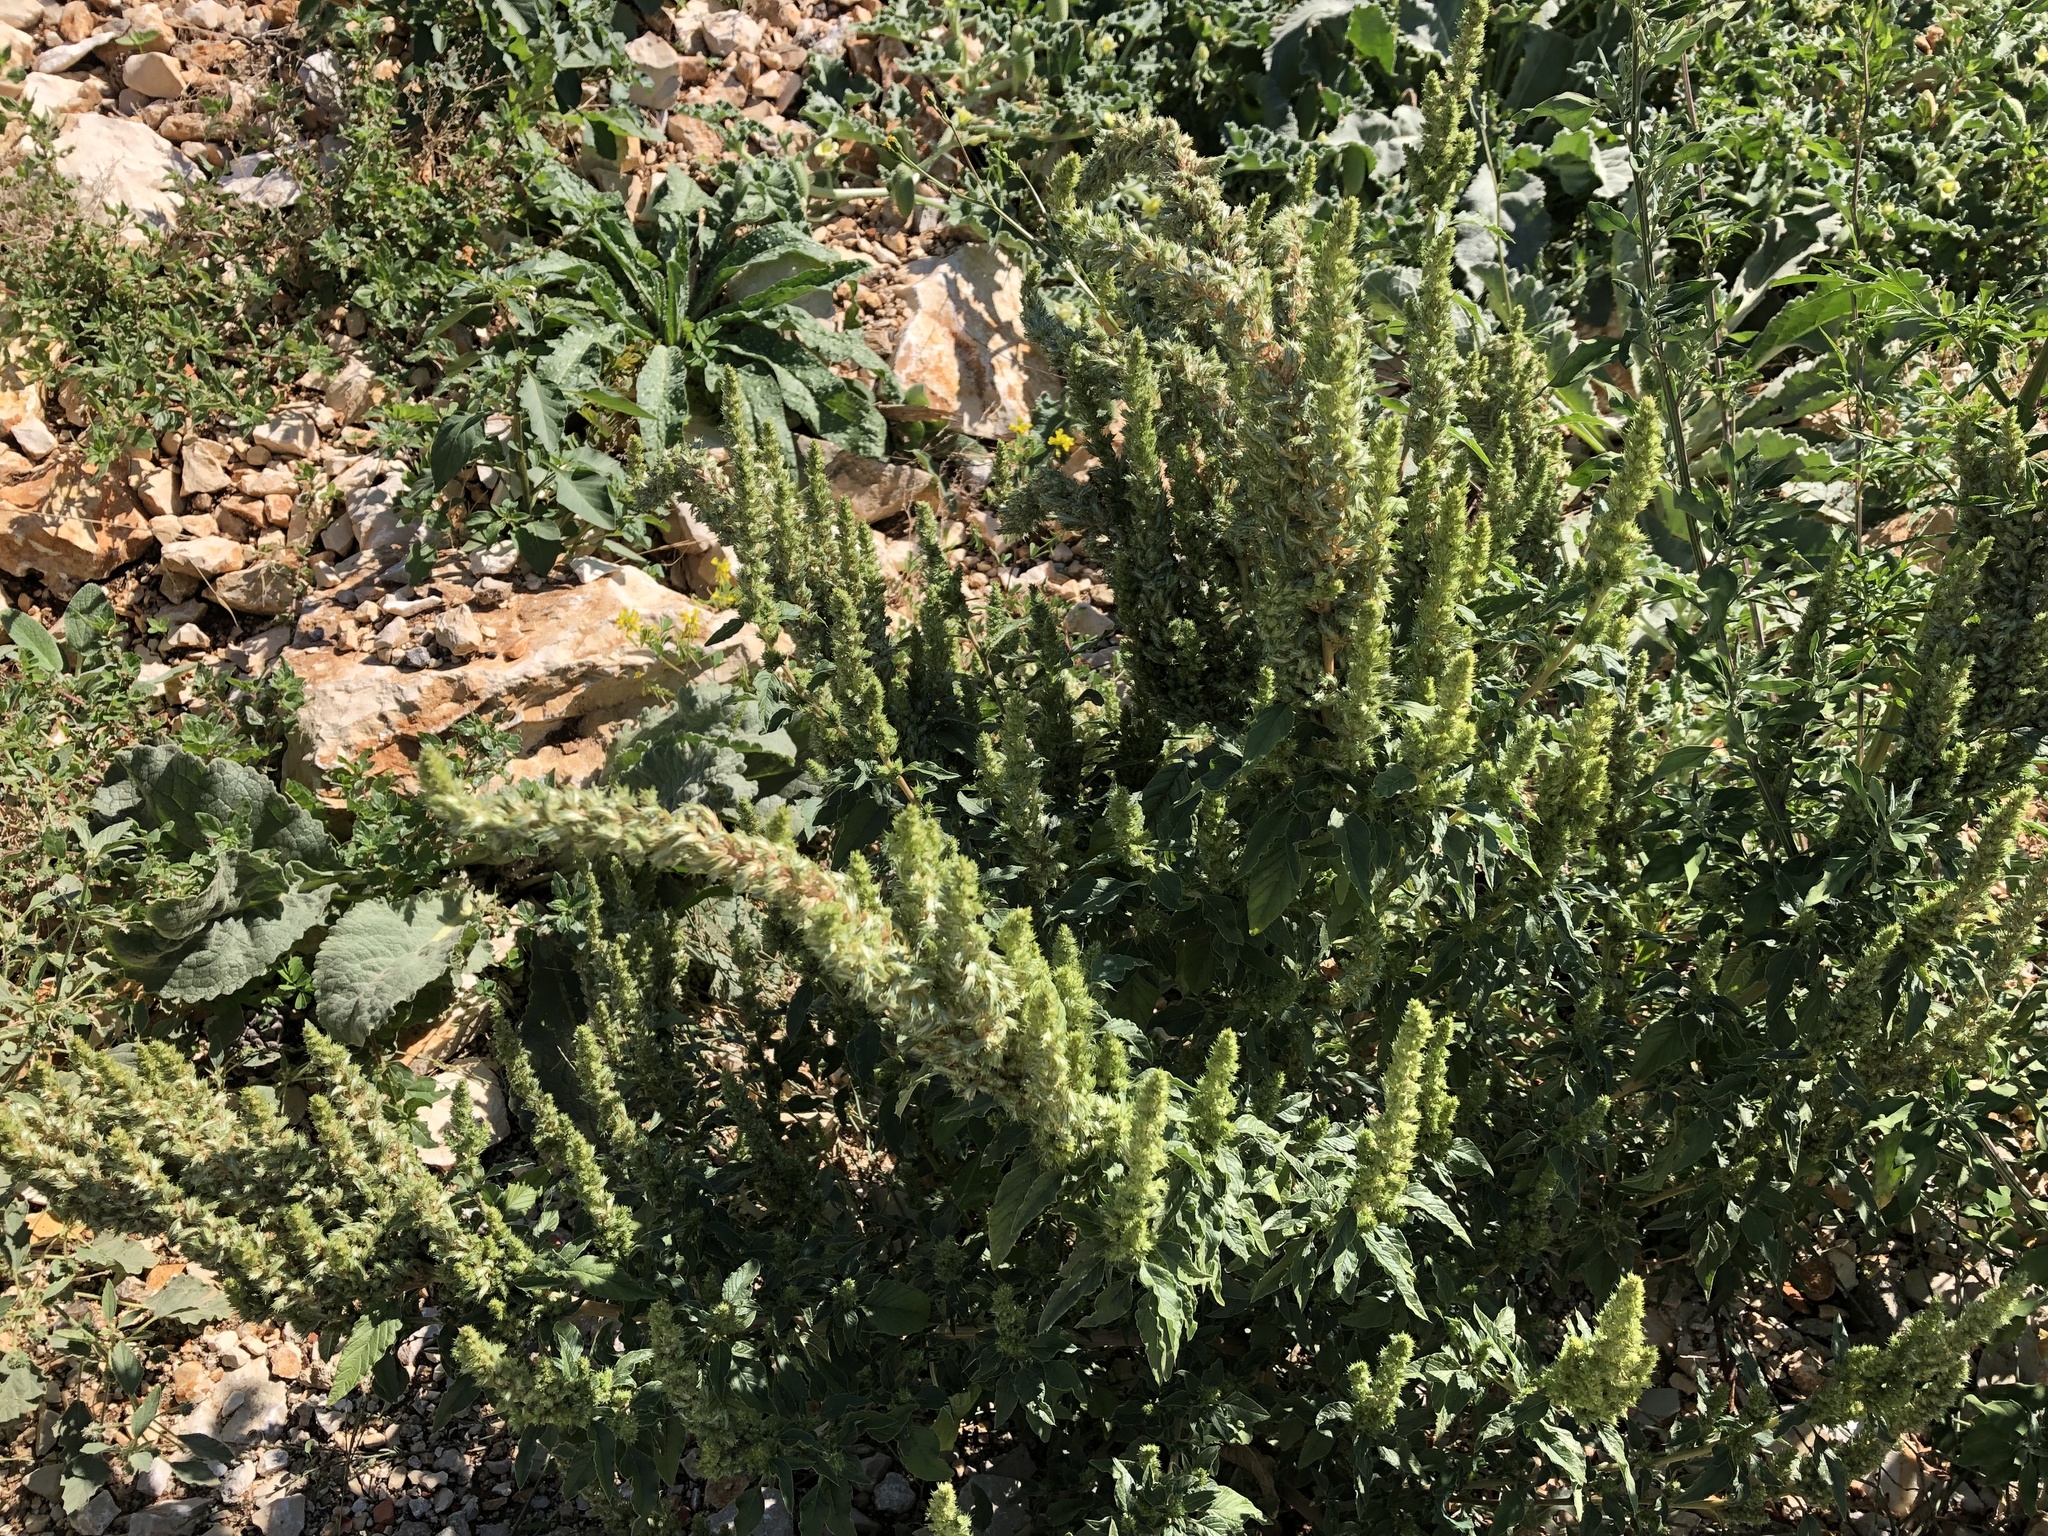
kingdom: Plantae
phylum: Tracheophyta
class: Magnoliopsida
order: Caryophyllales
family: Amaranthaceae
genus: Amaranthus
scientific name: Amaranthus retroflexus
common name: Redroot amaranth
